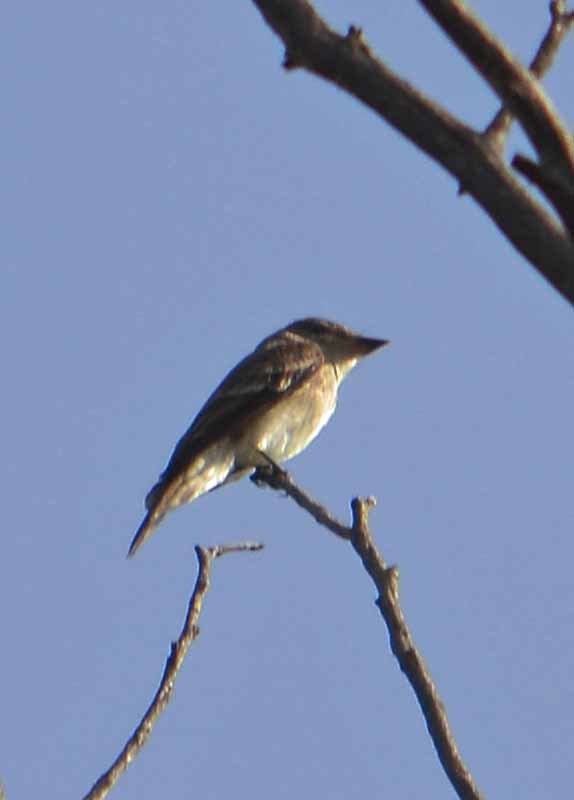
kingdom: Animalia
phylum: Chordata
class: Aves
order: Passeriformes
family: Tyrannidae
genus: Contopus
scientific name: Contopus sordidulus
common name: Western wood-pewee
